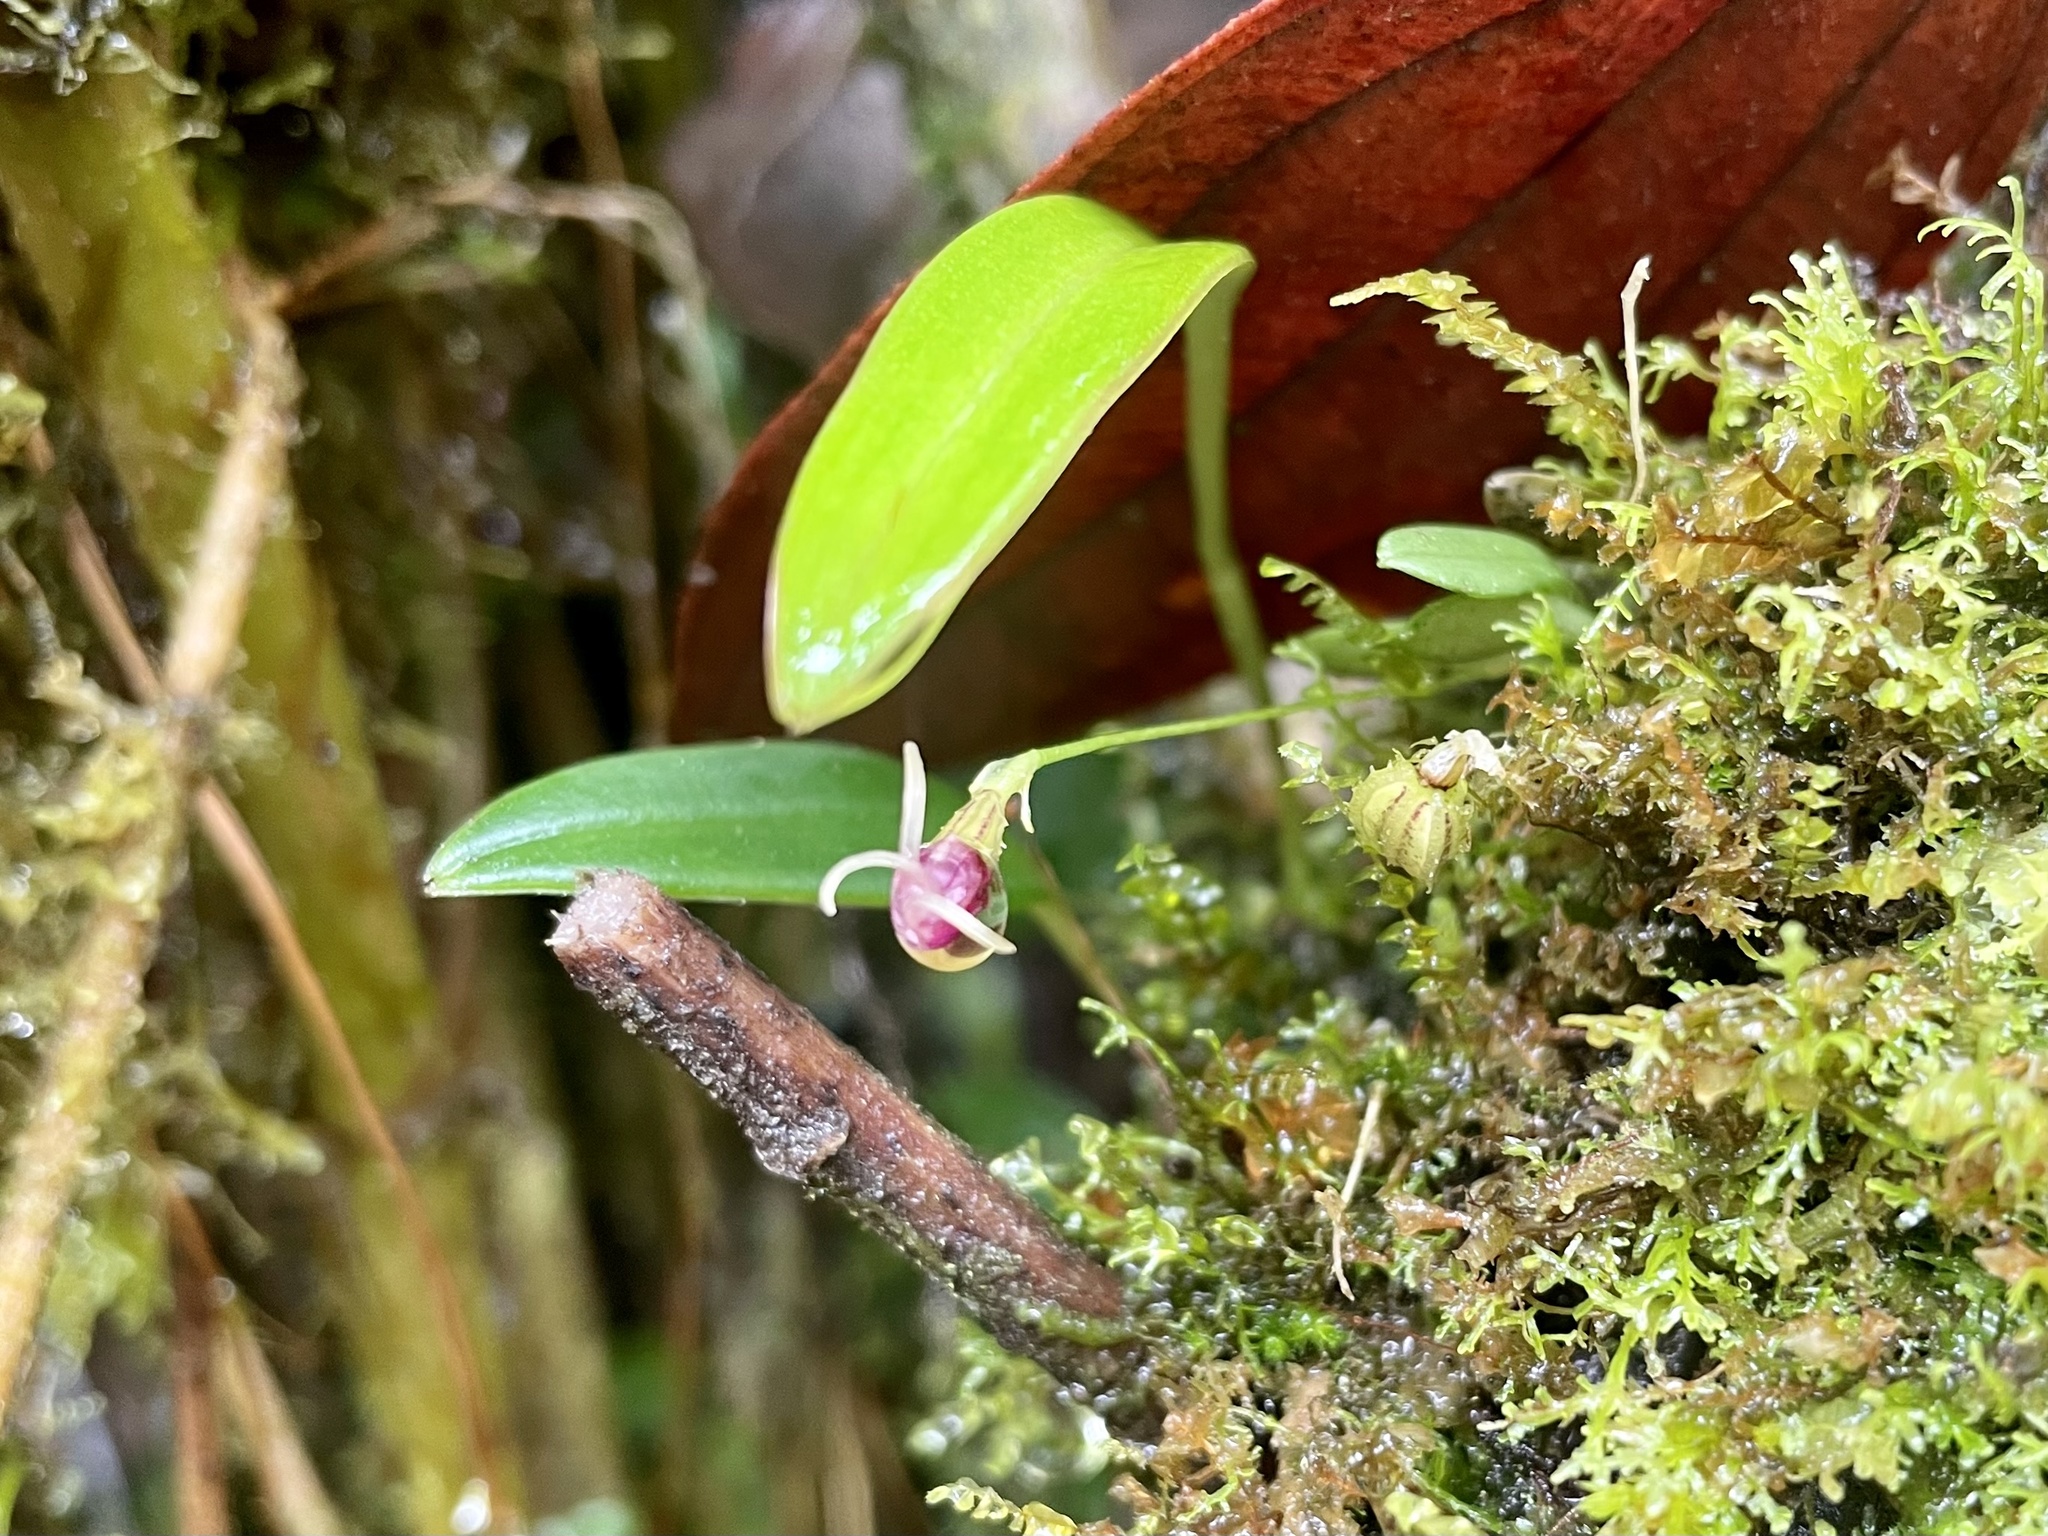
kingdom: Plantae
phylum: Tracheophyta
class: Liliopsida
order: Asparagales
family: Orchidaceae
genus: Diodonopsis
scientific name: Diodonopsis anachaeta
